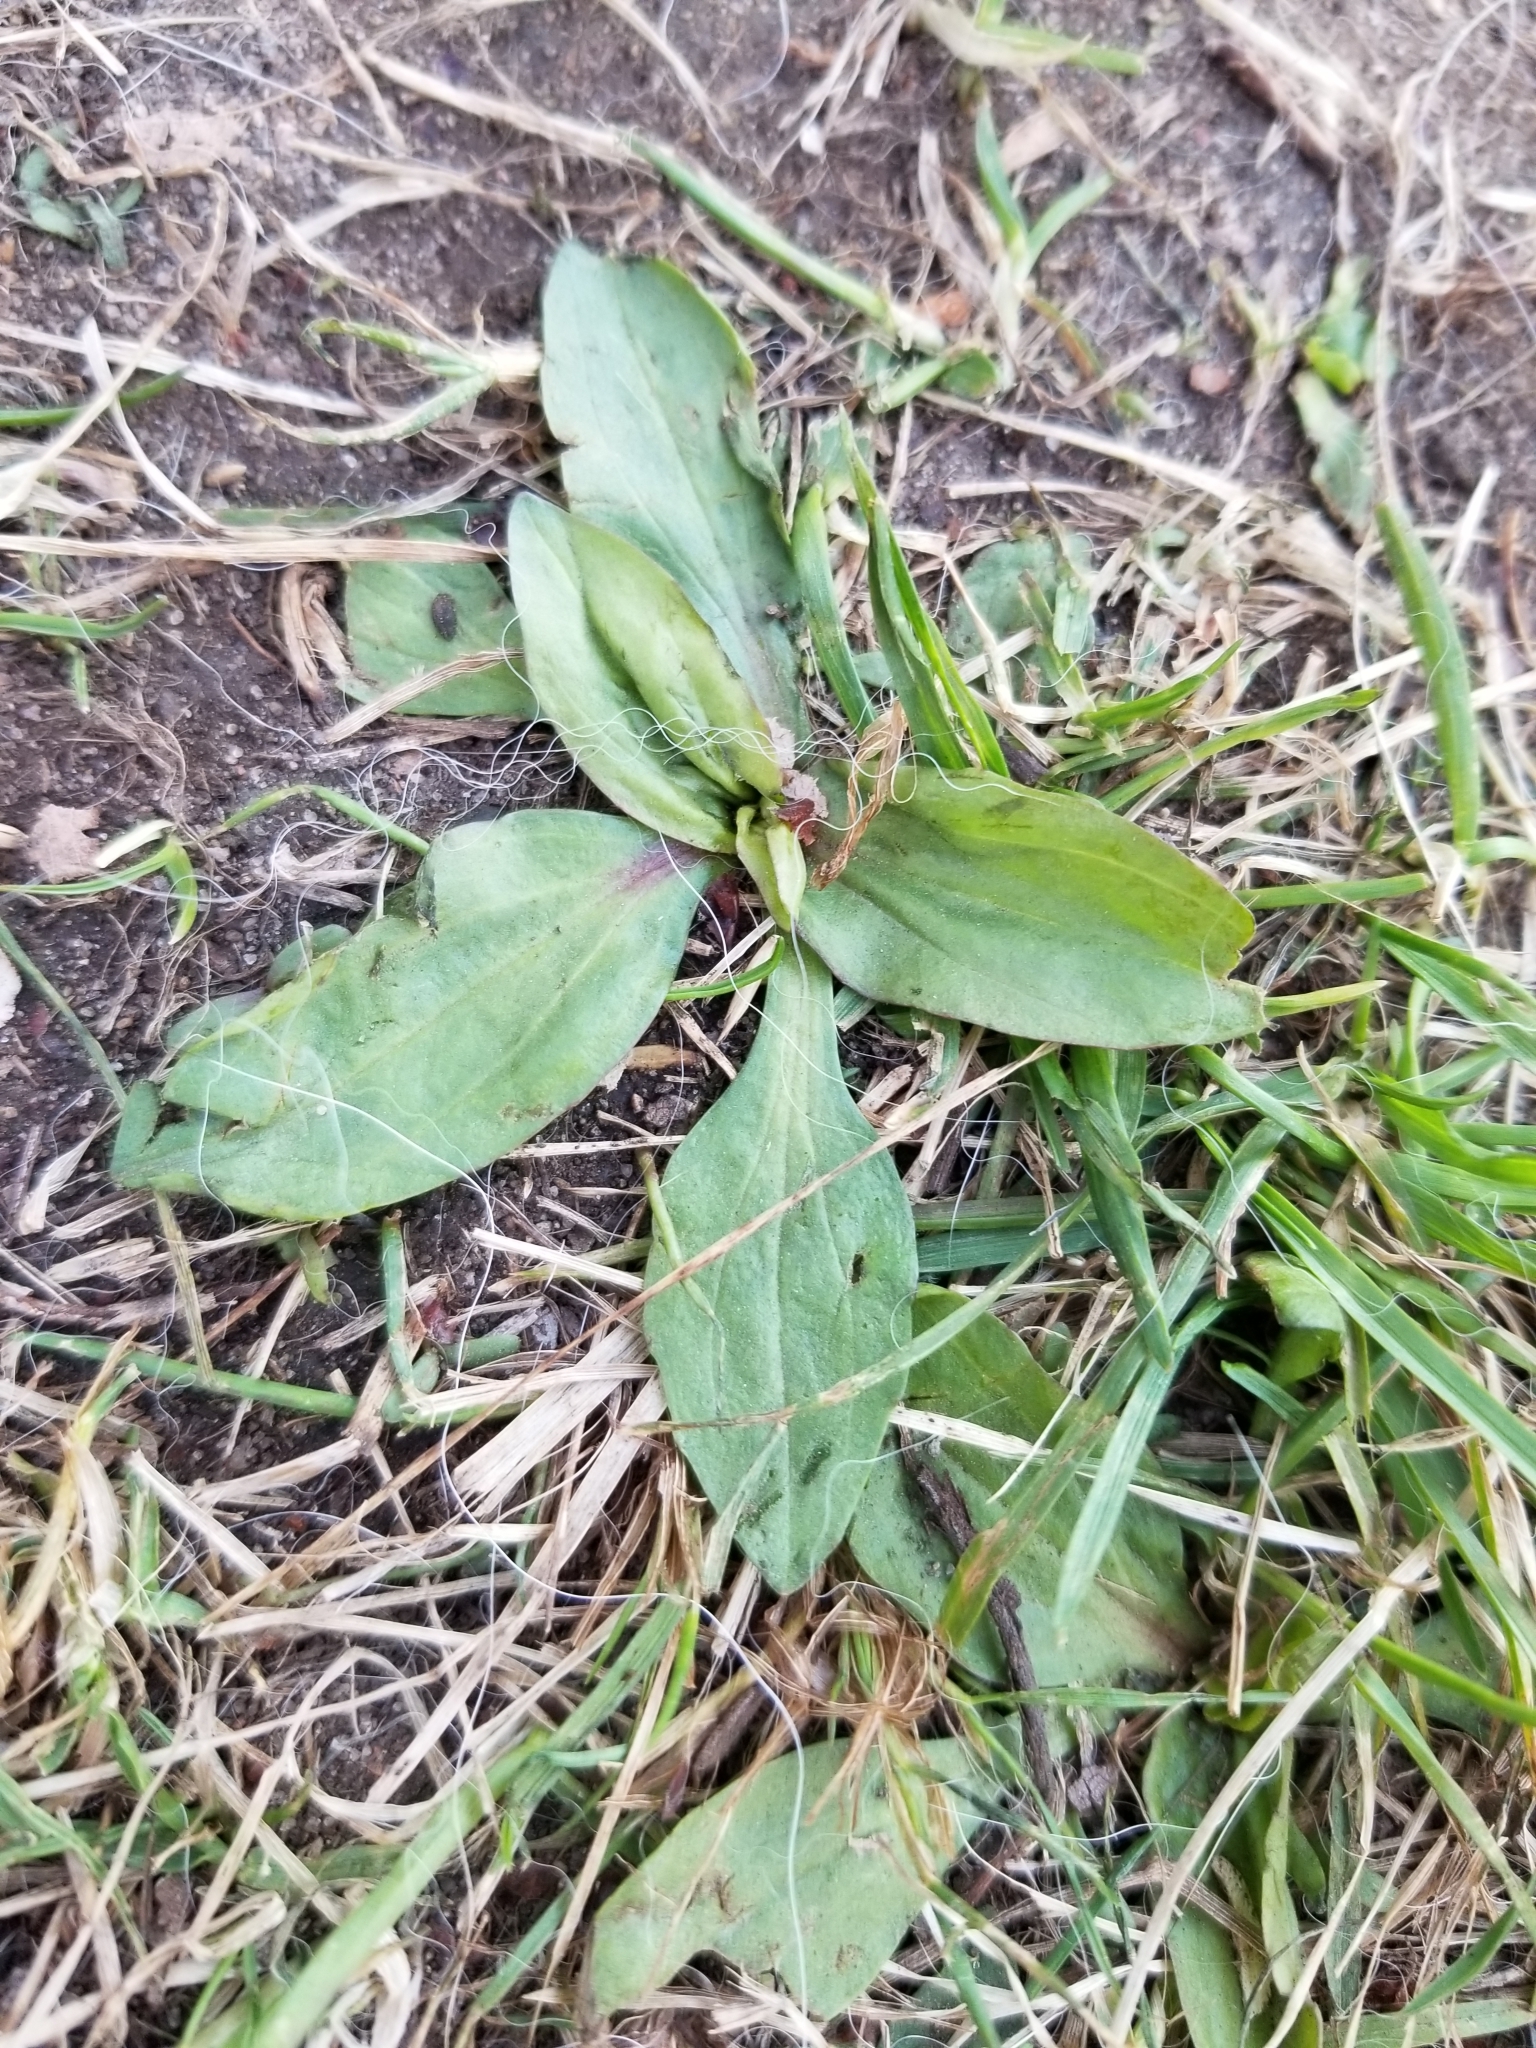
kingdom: Plantae
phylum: Tracheophyta
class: Magnoliopsida
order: Lamiales
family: Plantaginaceae
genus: Plantago
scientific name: Plantago rugelii
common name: American plantain
